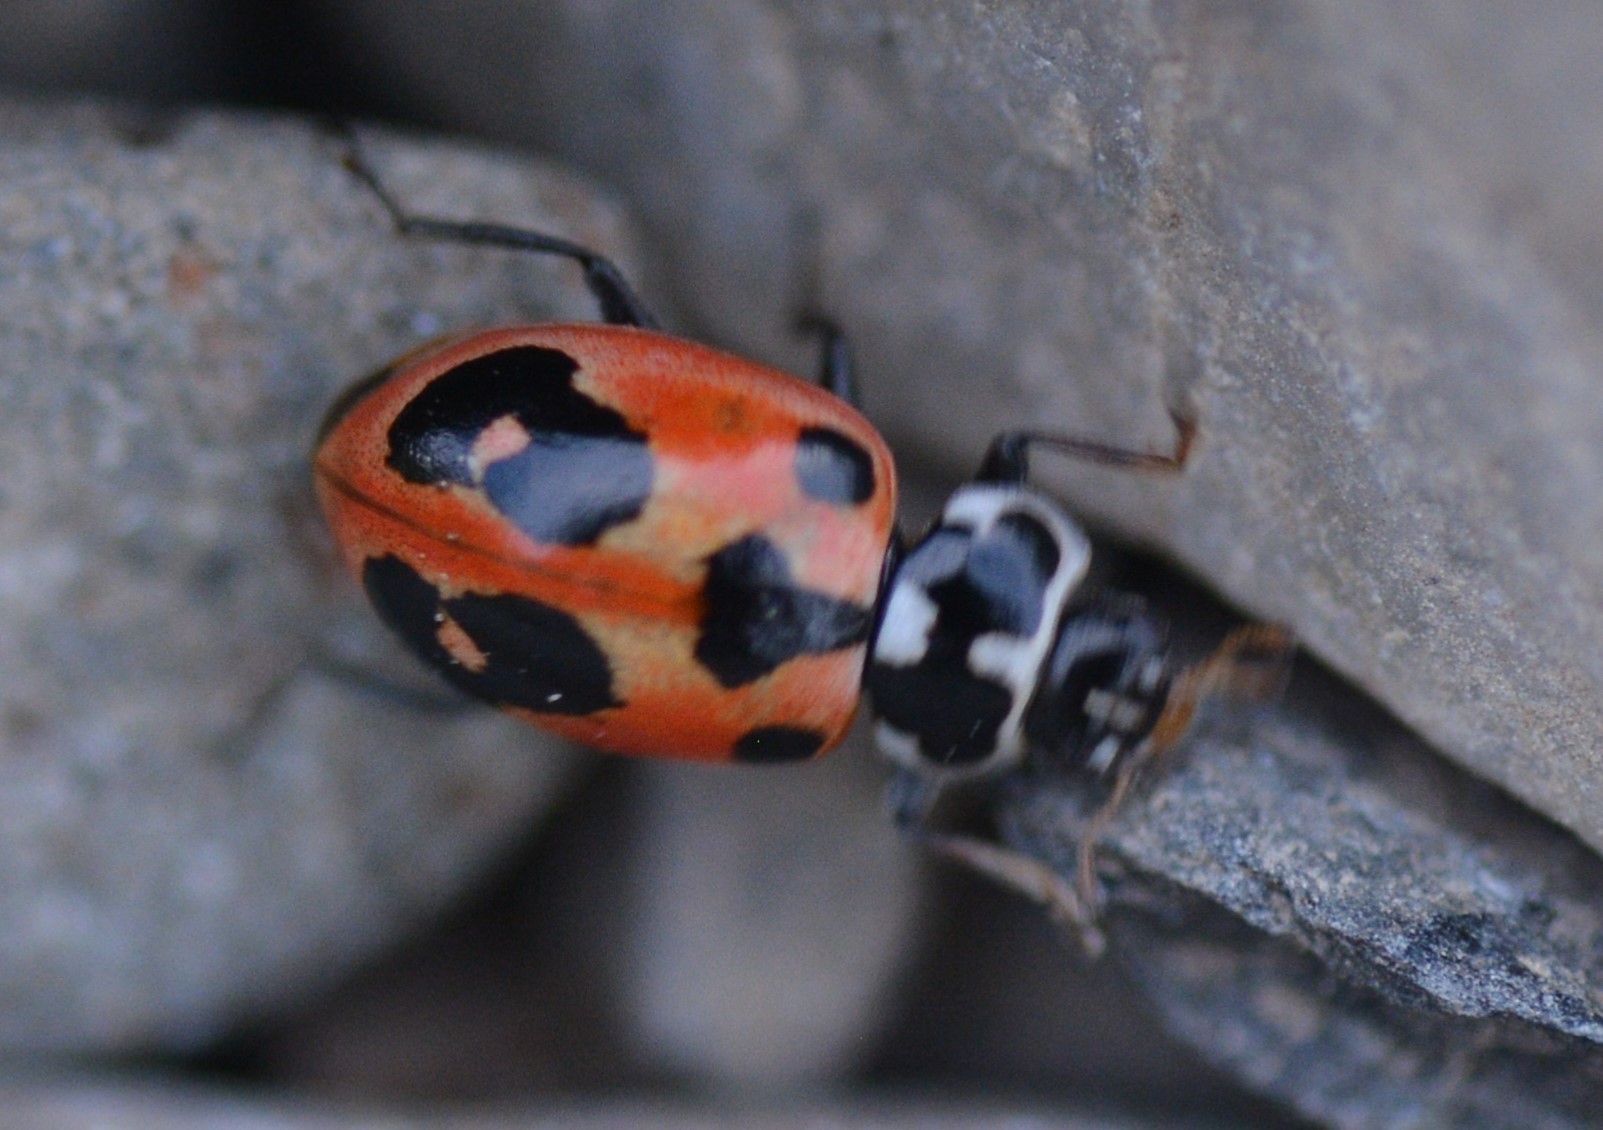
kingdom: Animalia
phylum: Arthropoda
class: Insecta
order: Coleoptera
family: Coccinellidae
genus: Hippodamia
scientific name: Hippodamia parenthesis
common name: Parenthesis lady beetle
